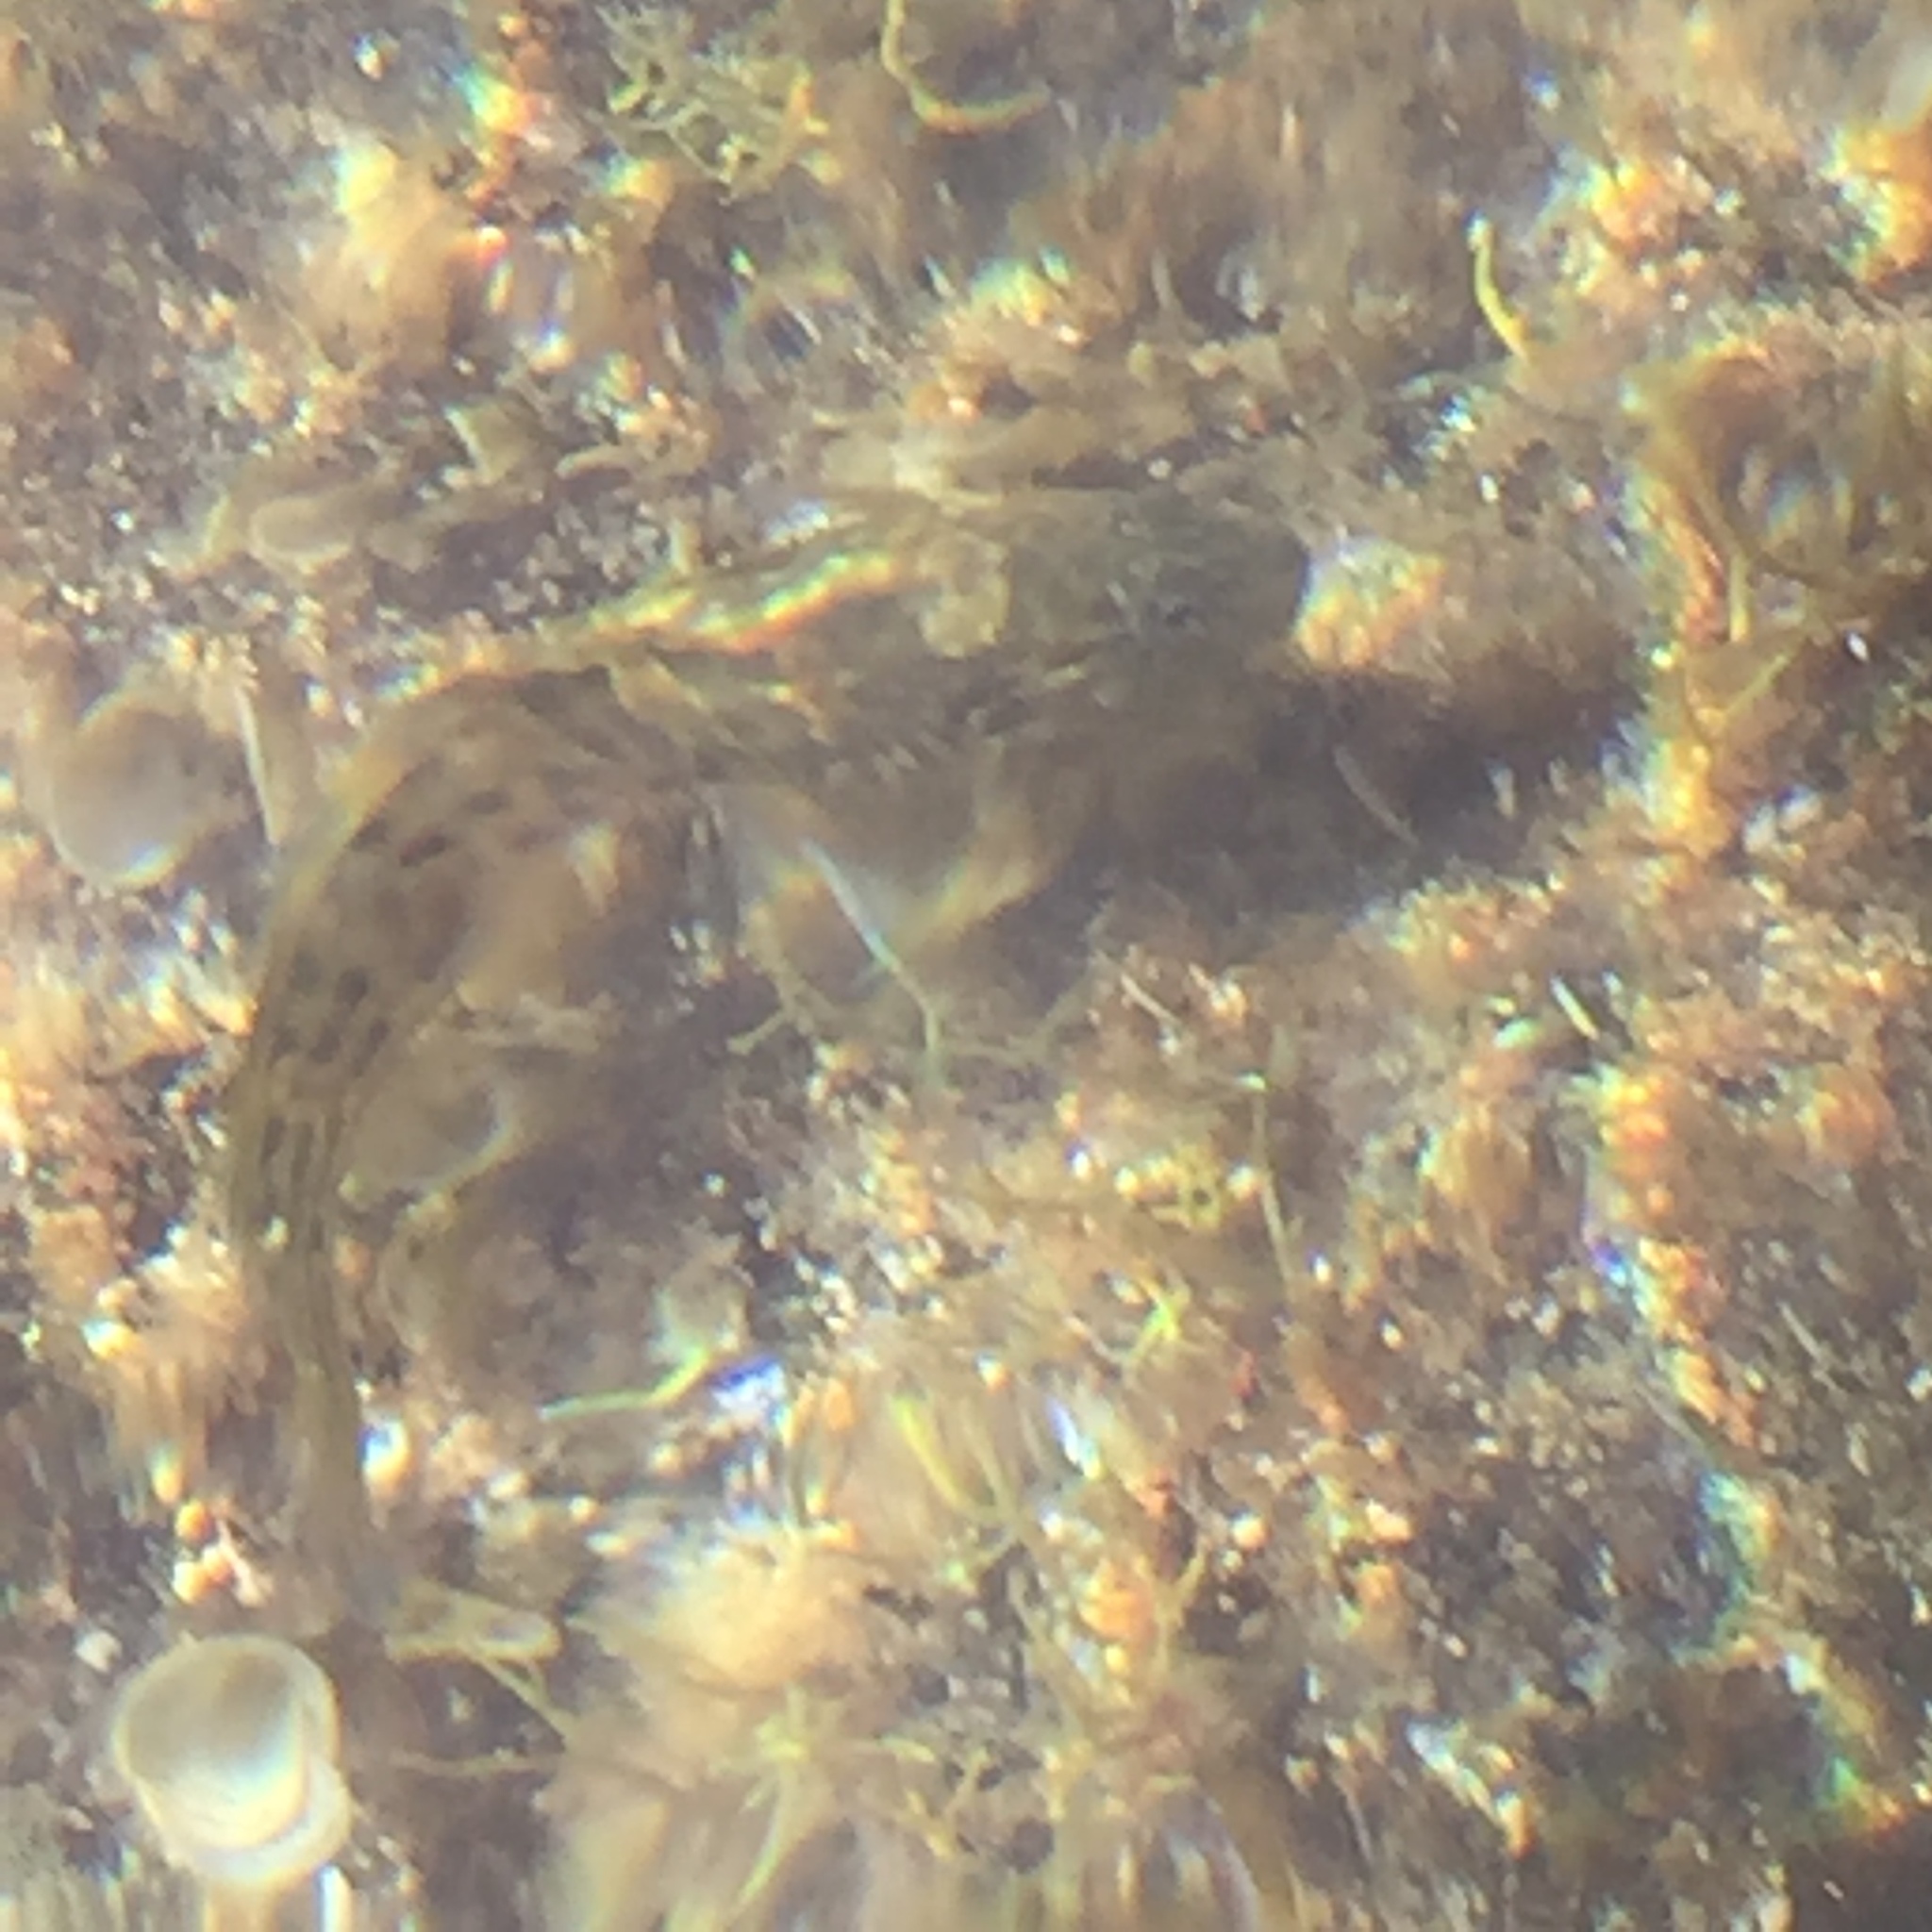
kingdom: Animalia
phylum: Chordata
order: Perciformes
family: Blenniidae
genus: Parablennius
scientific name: Parablennius parvicornis
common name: Rock-pool blenny
